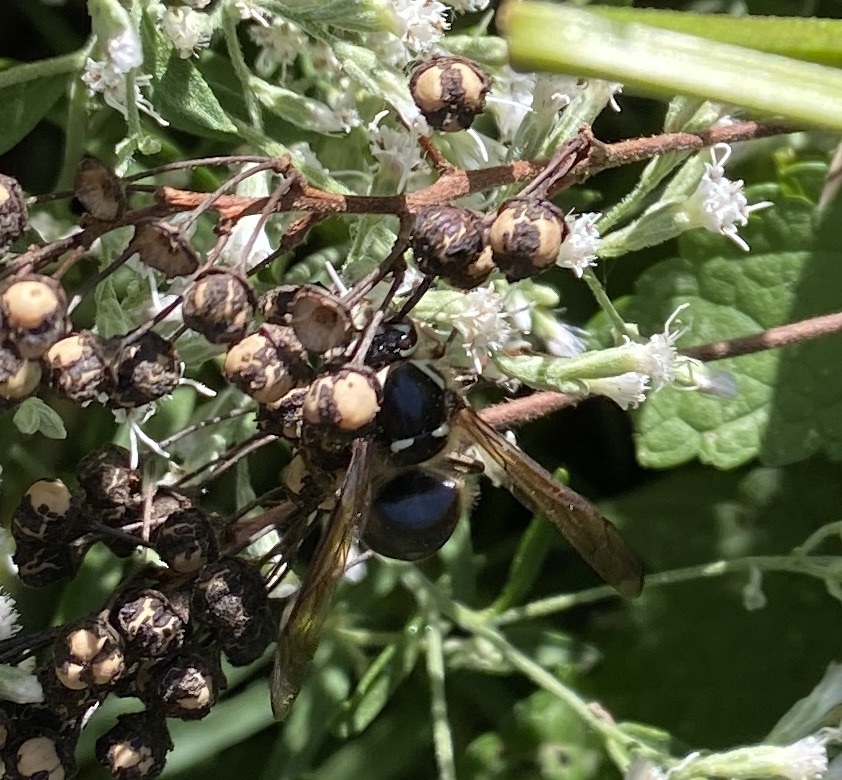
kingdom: Animalia
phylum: Arthropoda
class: Insecta
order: Hymenoptera
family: Vespidae
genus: Dolichovespula
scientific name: Dolichovespula maculata
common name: Bald-faced hornet
